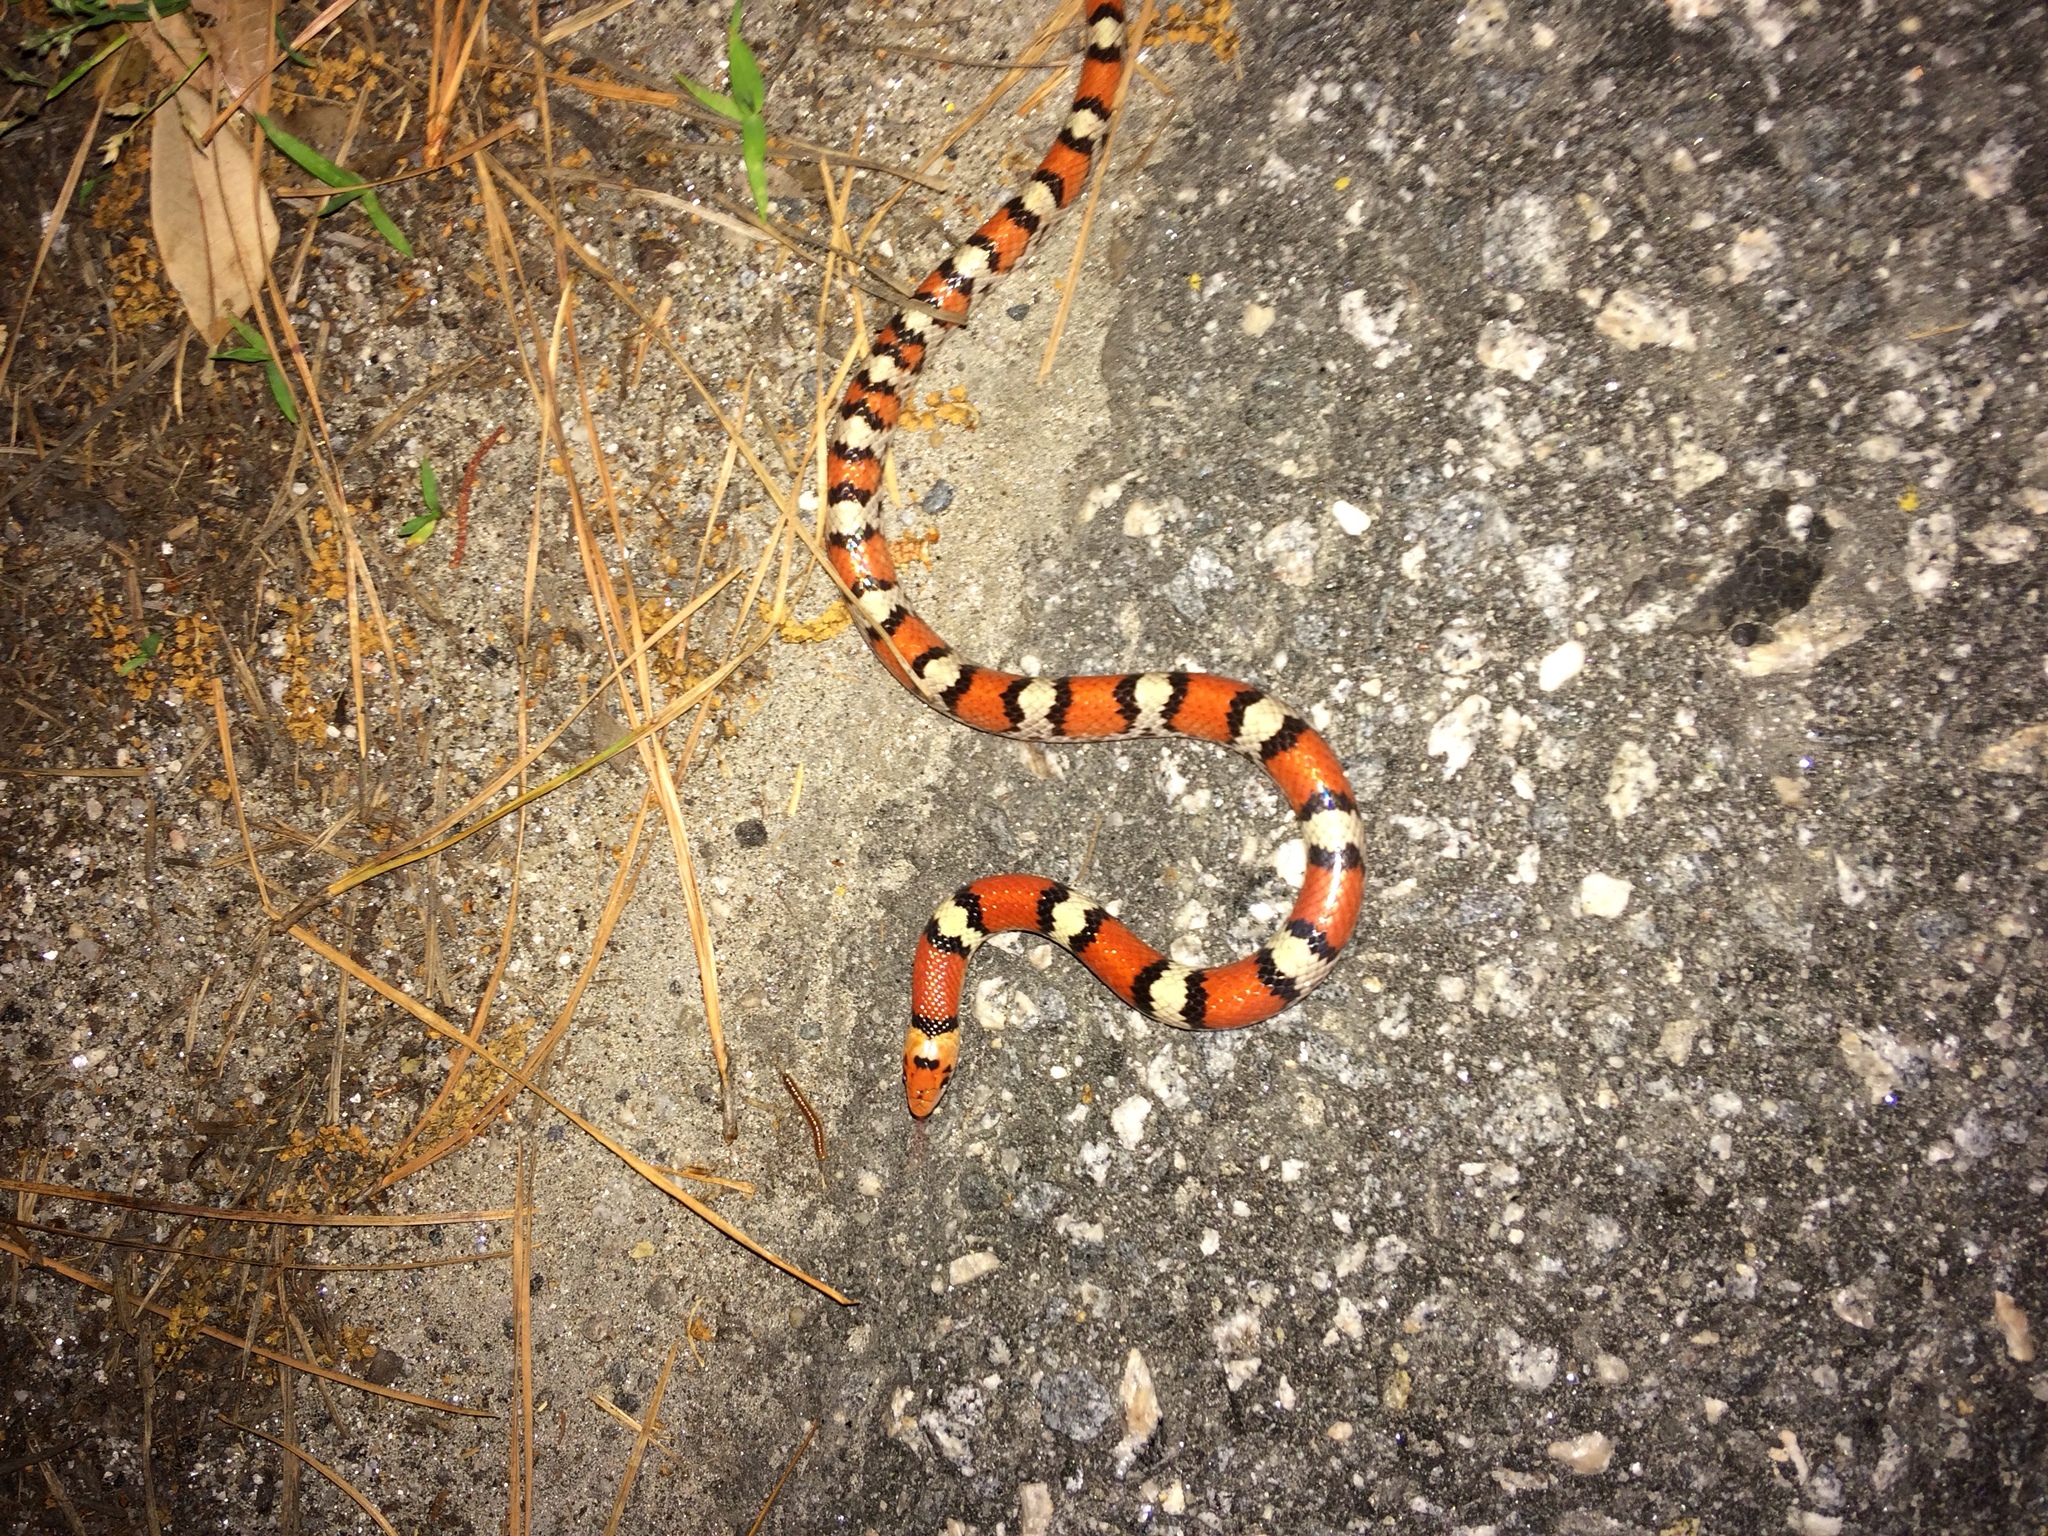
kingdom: Animalia
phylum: Chordata
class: Squamata
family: Colubridae
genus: Cemophora
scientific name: Cemophora coccinea
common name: Scarlet snake
